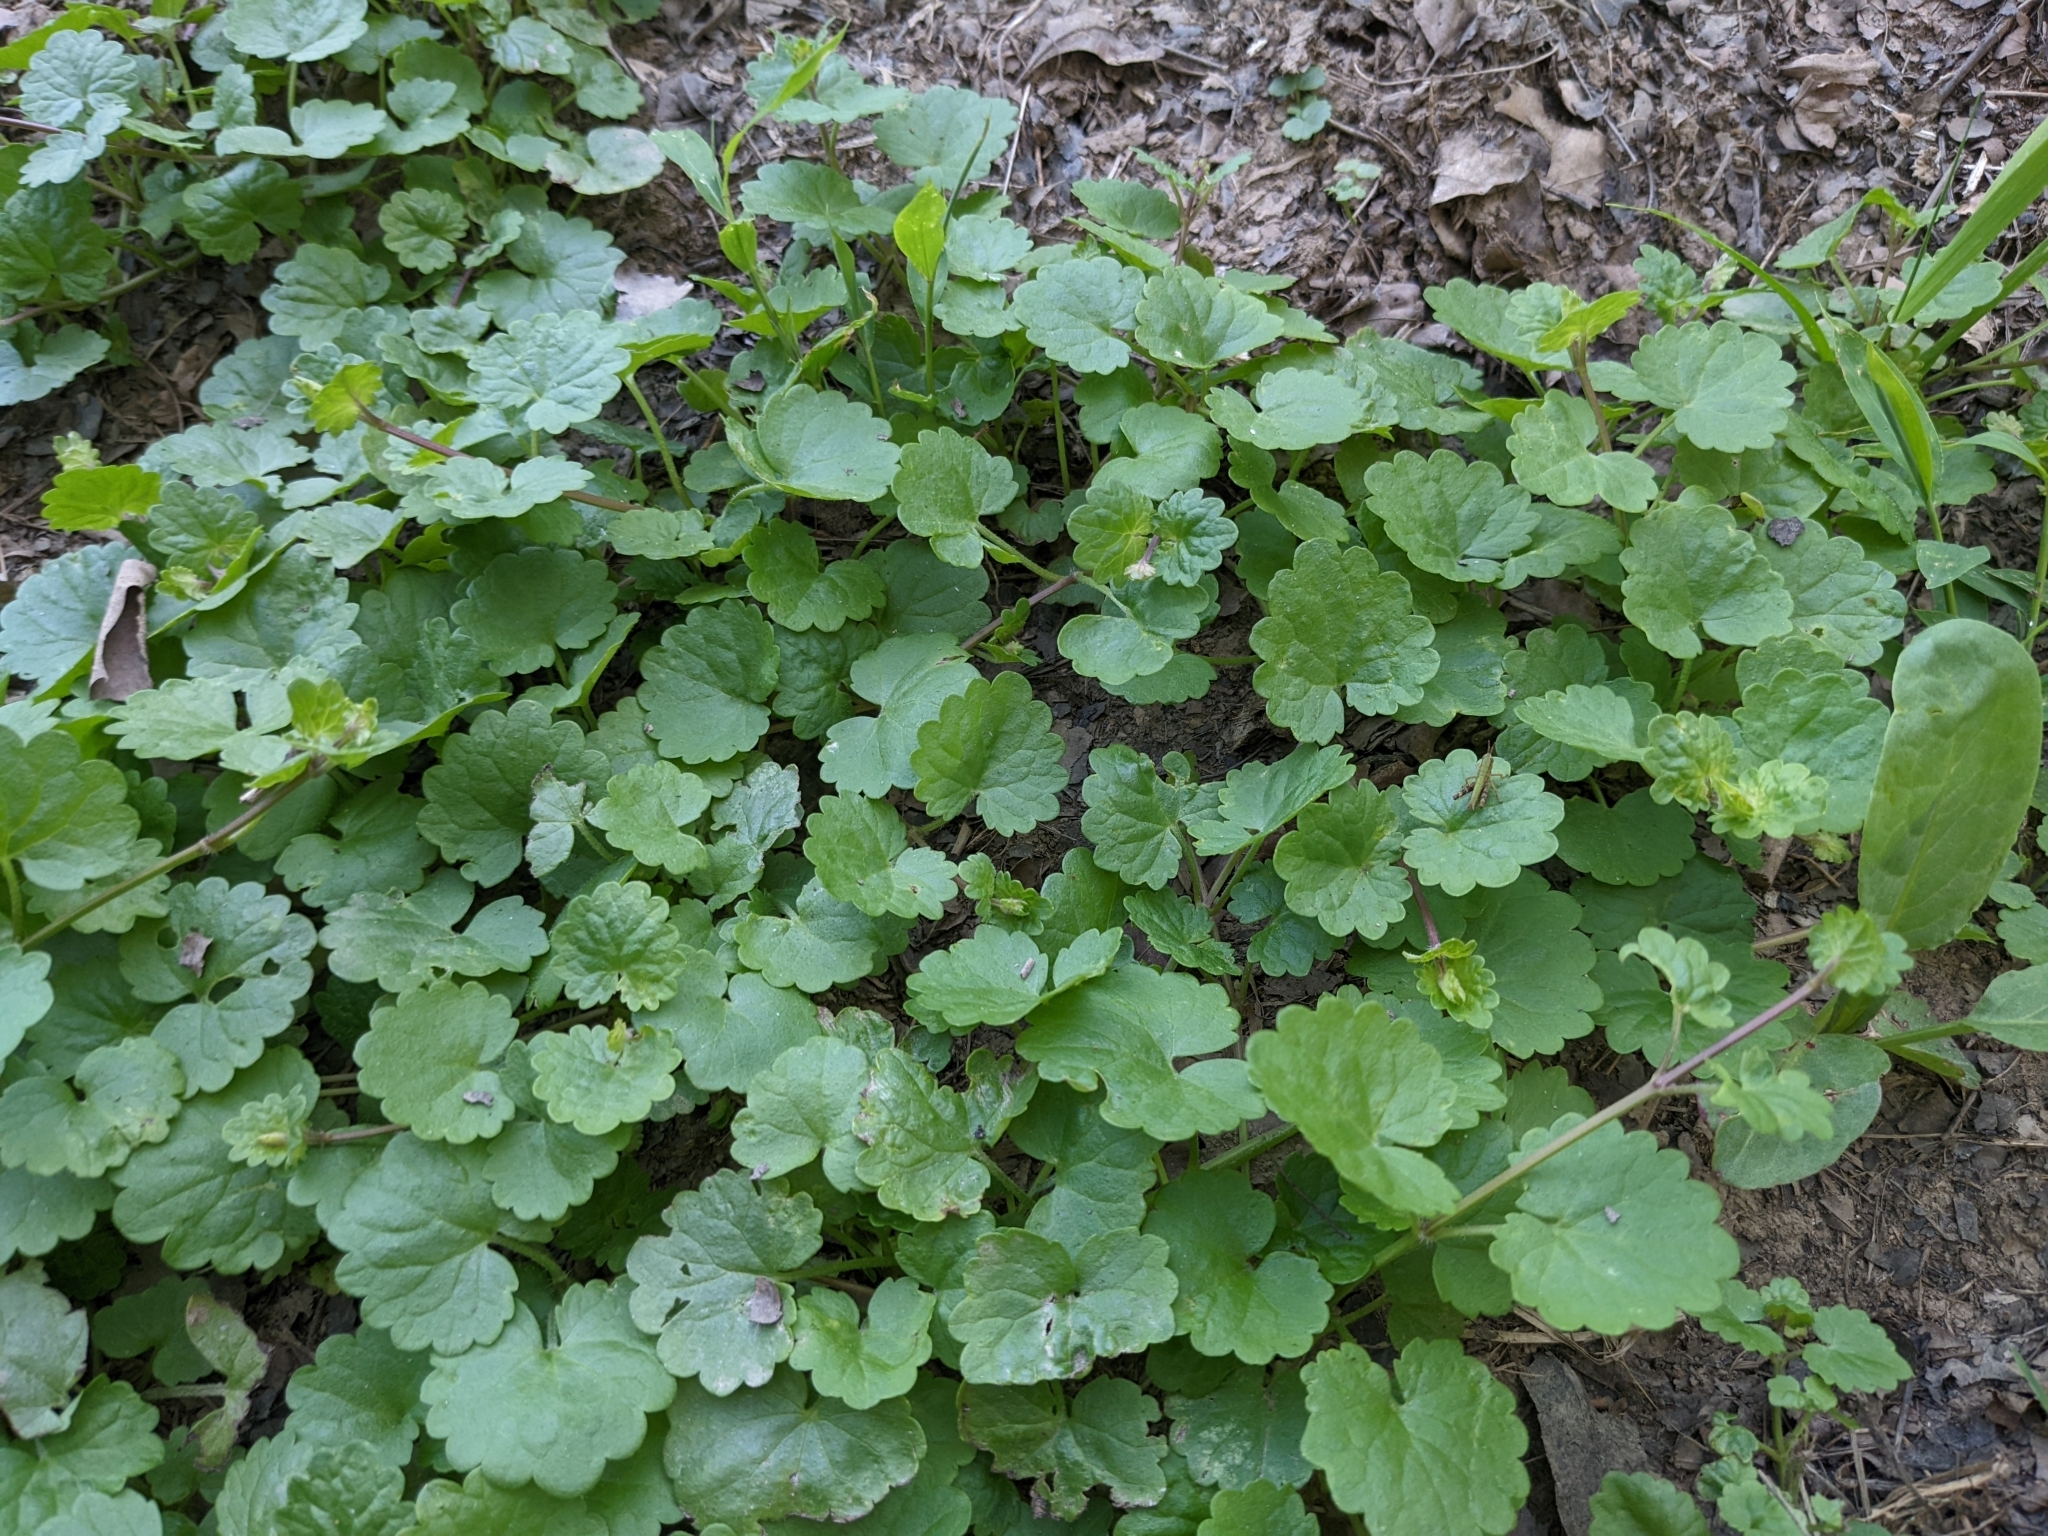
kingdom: Plantae
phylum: Tracheophyta
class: Magnoliopsida
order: Lamiales
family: Lamiaceae
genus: Glechoma
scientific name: Glechoma hederacea
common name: Ground ivy
